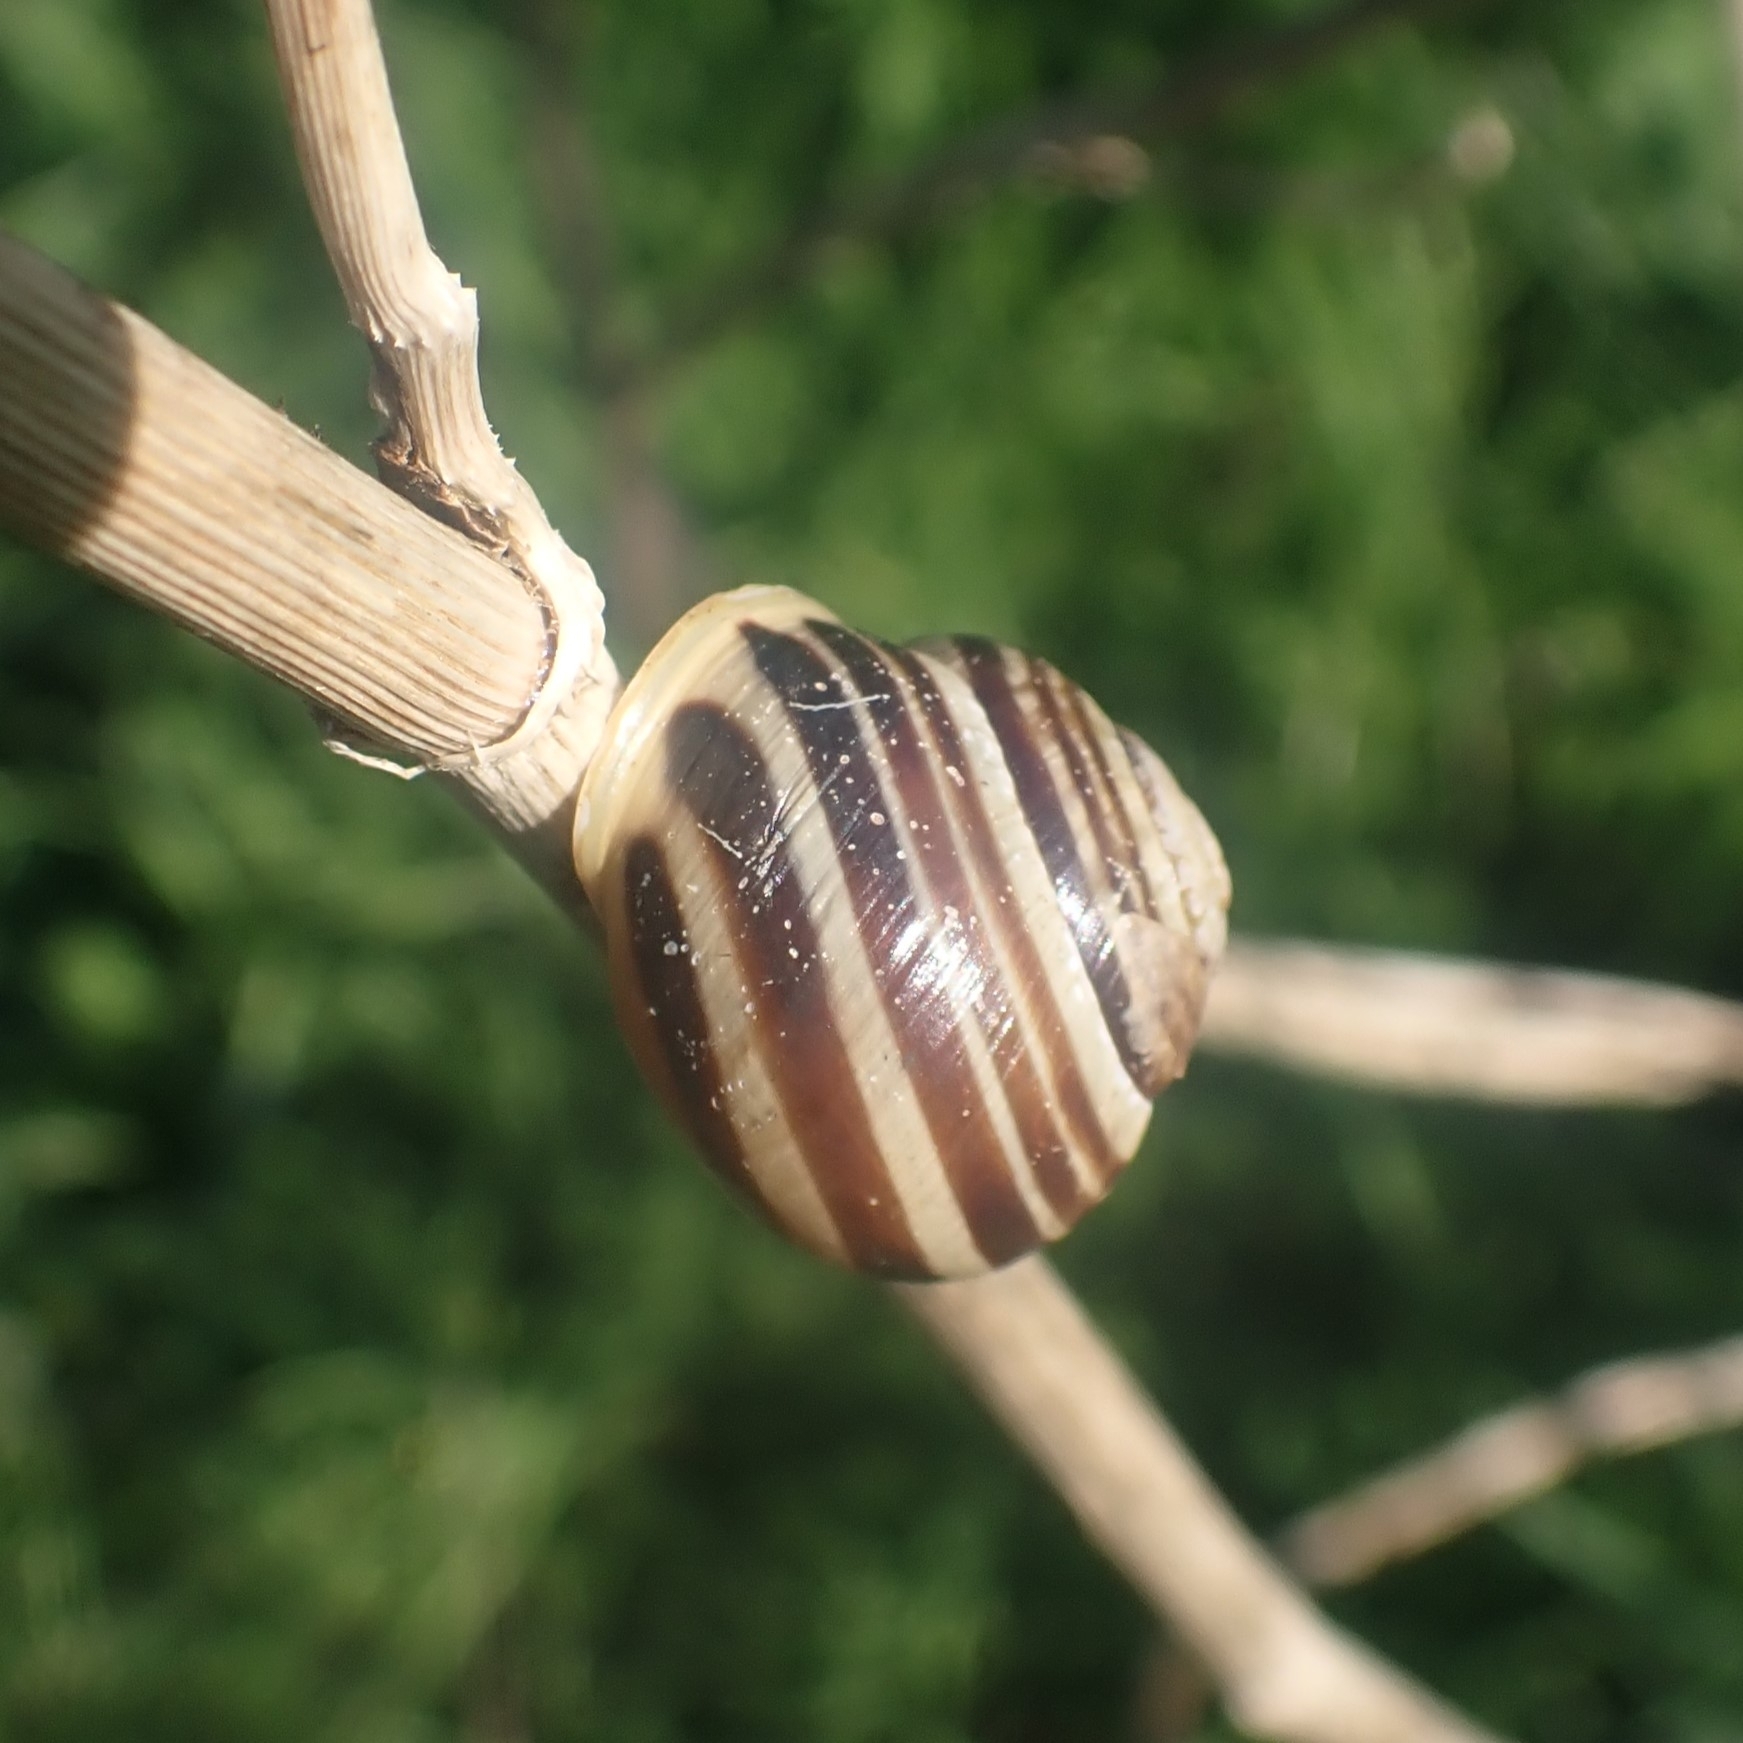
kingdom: Animalia
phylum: Mollusca
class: Gastropoda
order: Stylommatophora
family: Helicidae
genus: Cepaea
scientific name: Cepaea hortensis
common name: White-lip gardensnail
